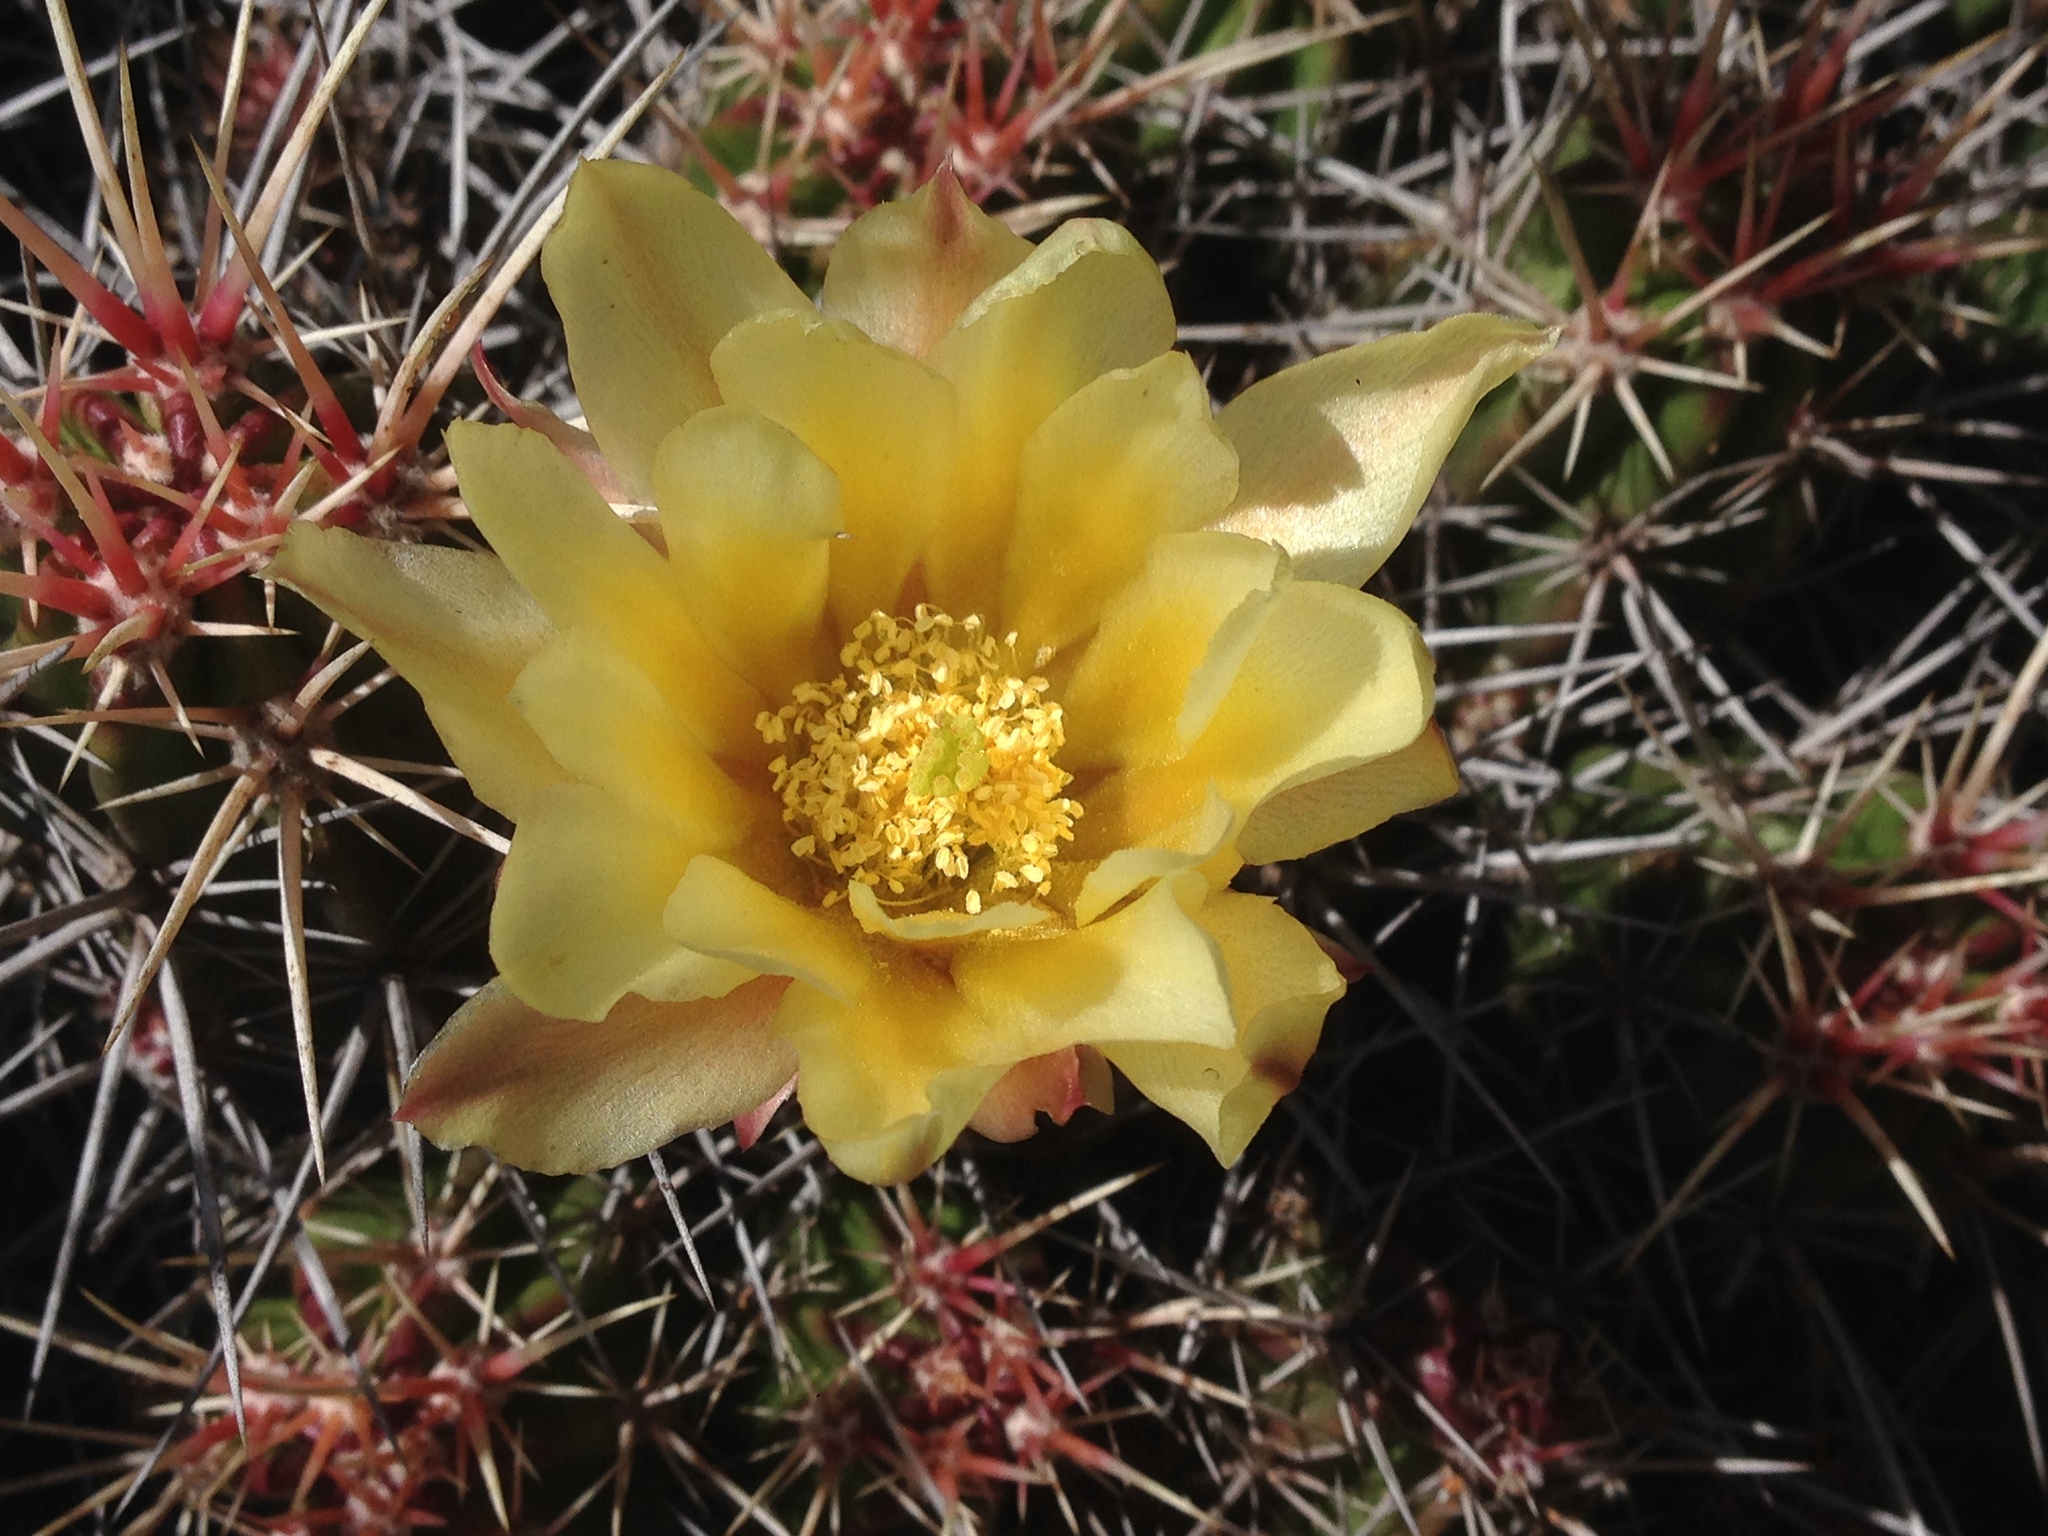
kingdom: Plantae
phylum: Tracheophyta
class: Magnoliopsida
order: Caryophyllales
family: Cactaceae
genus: Echinocereus
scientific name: Echinocereus maritimus
